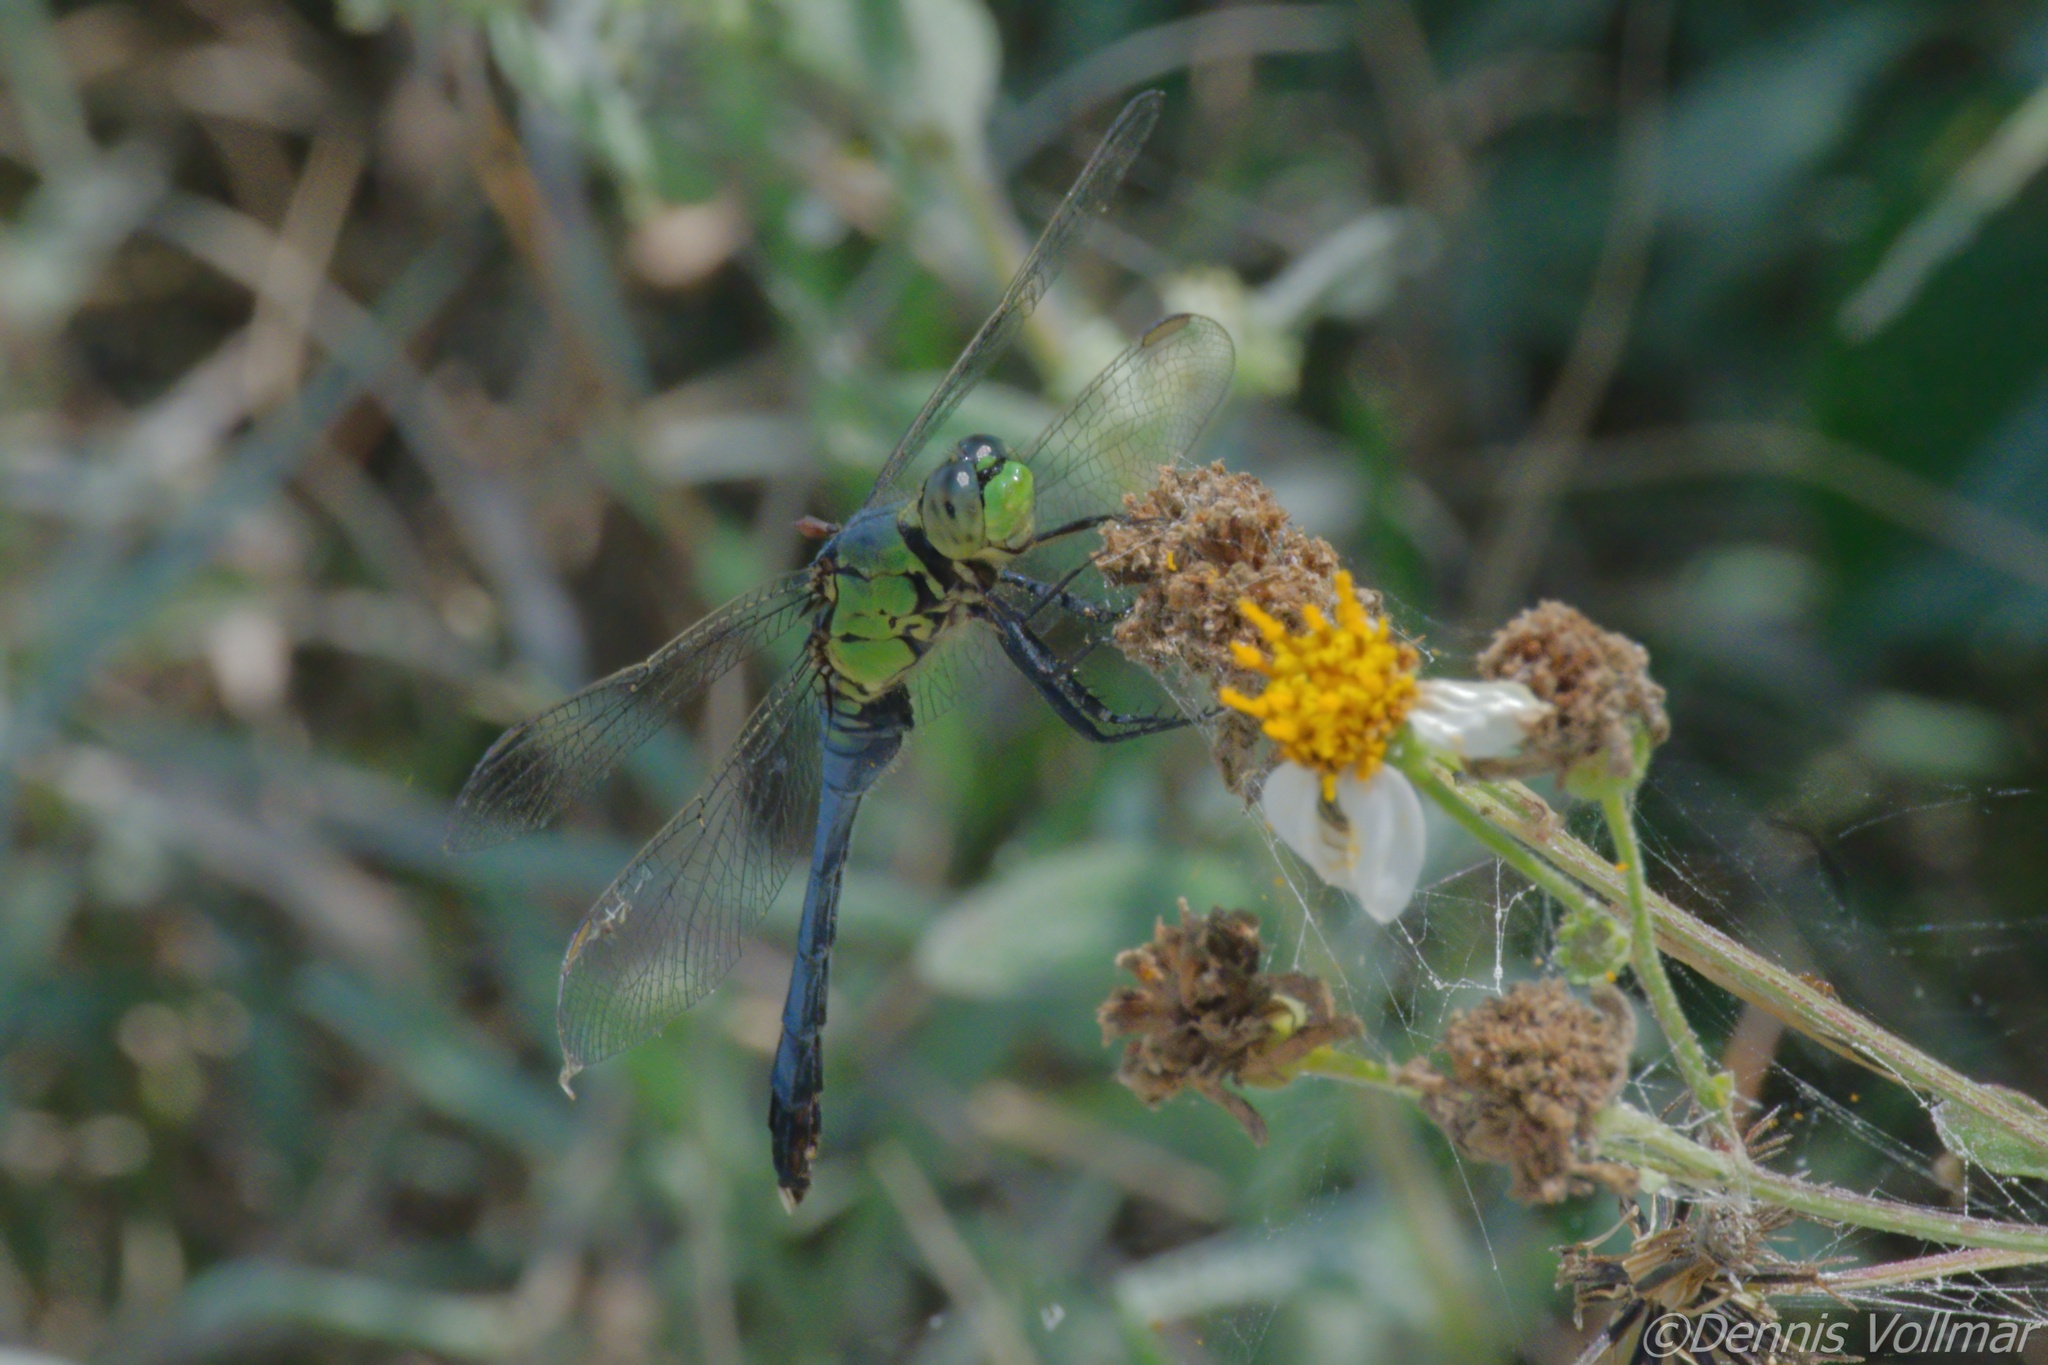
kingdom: Animalia
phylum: Arthropoda
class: Insecta
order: Odonata
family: Libellulidae
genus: Erythemis
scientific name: Erythemis simplicicollis
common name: Eastern pondhawk
